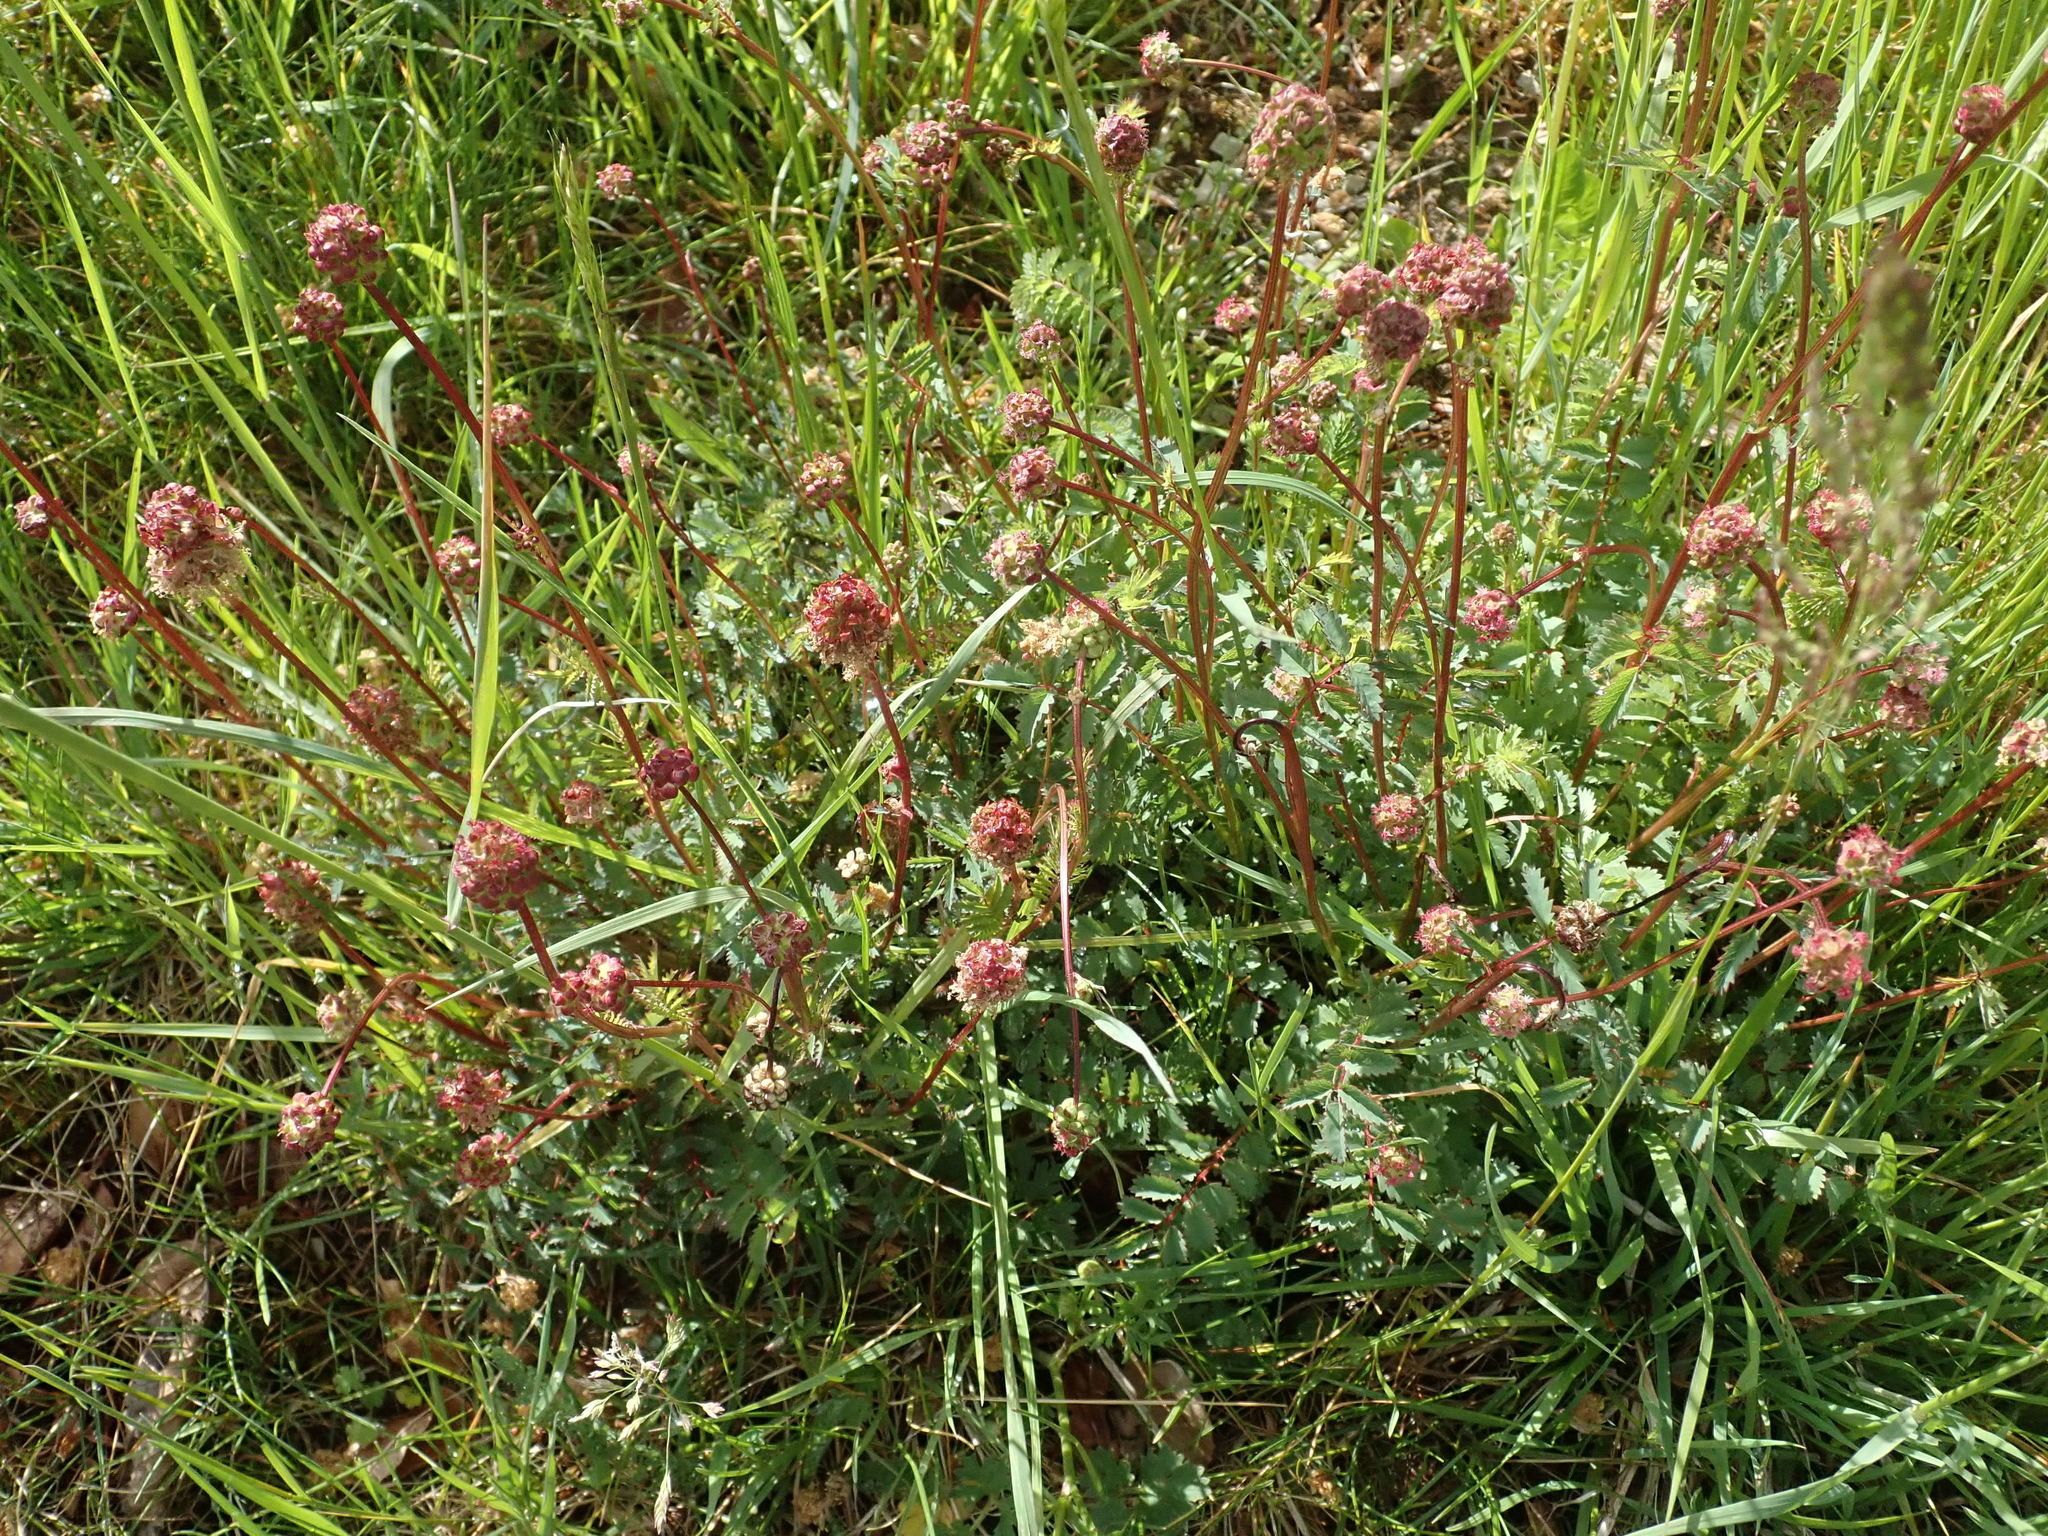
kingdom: Plantae
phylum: Tracheophyta
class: Magnoliopsida
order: Rosales
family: Rosaceae
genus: Poterium
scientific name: Poterium sanguisorba
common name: Salad burnet
